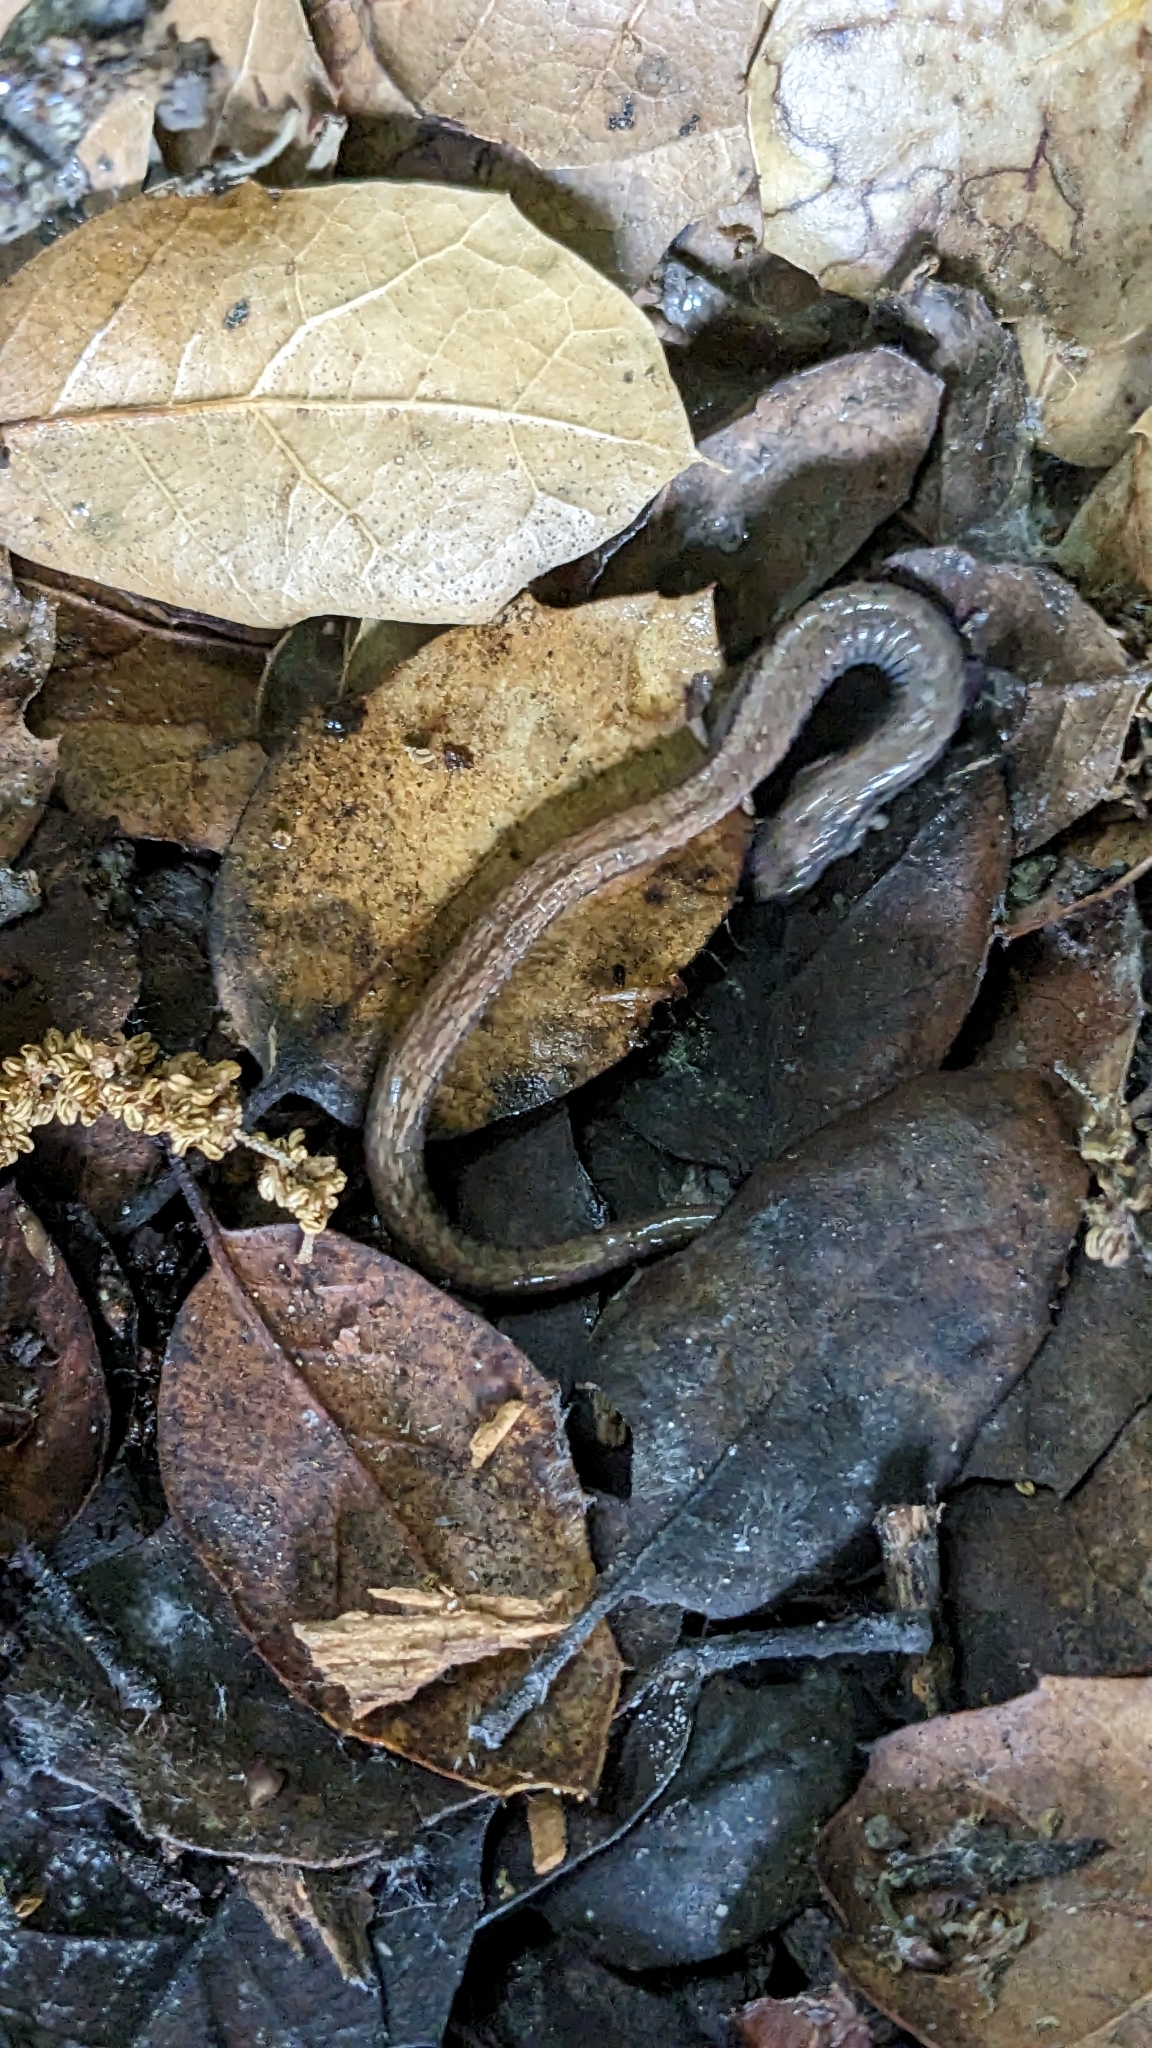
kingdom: Animalia
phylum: Chordata
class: Amphibia
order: Caudata
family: Plethodontidae
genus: Batrachoseps
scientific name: Batrachoseps attenuatus
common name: California slender salamander
